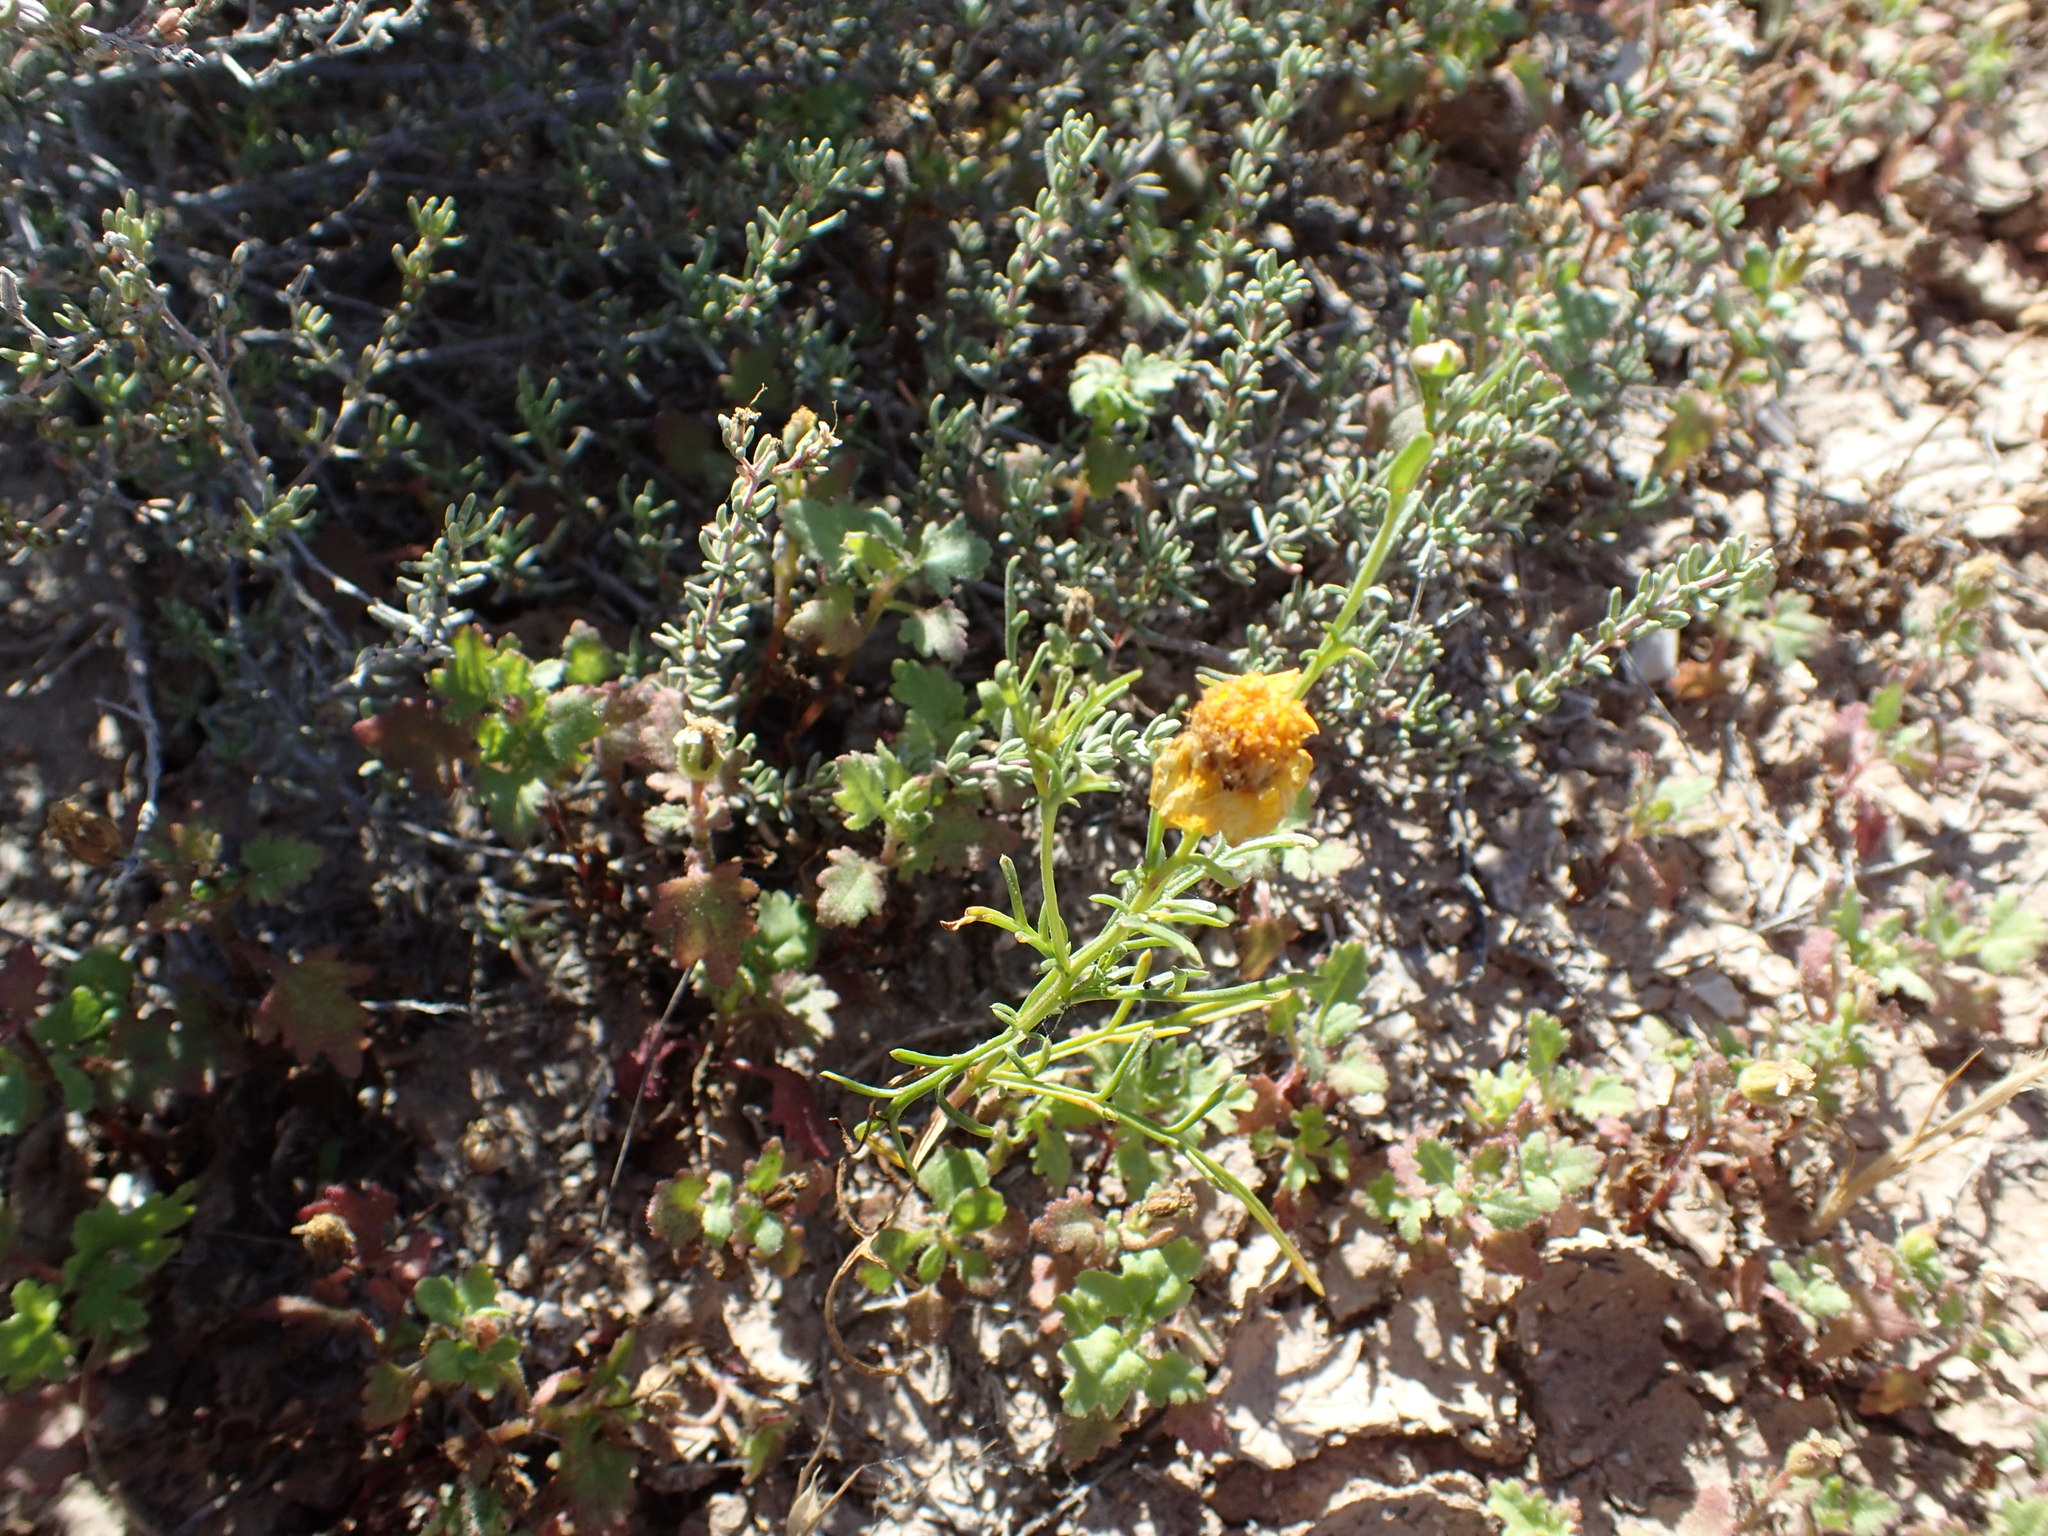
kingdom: Plantae
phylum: Tracheophyta
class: Magnoliopsida
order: Asterales
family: Asteraceae
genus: Boeberastrum
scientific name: Boeberastrum anthemidifolium
